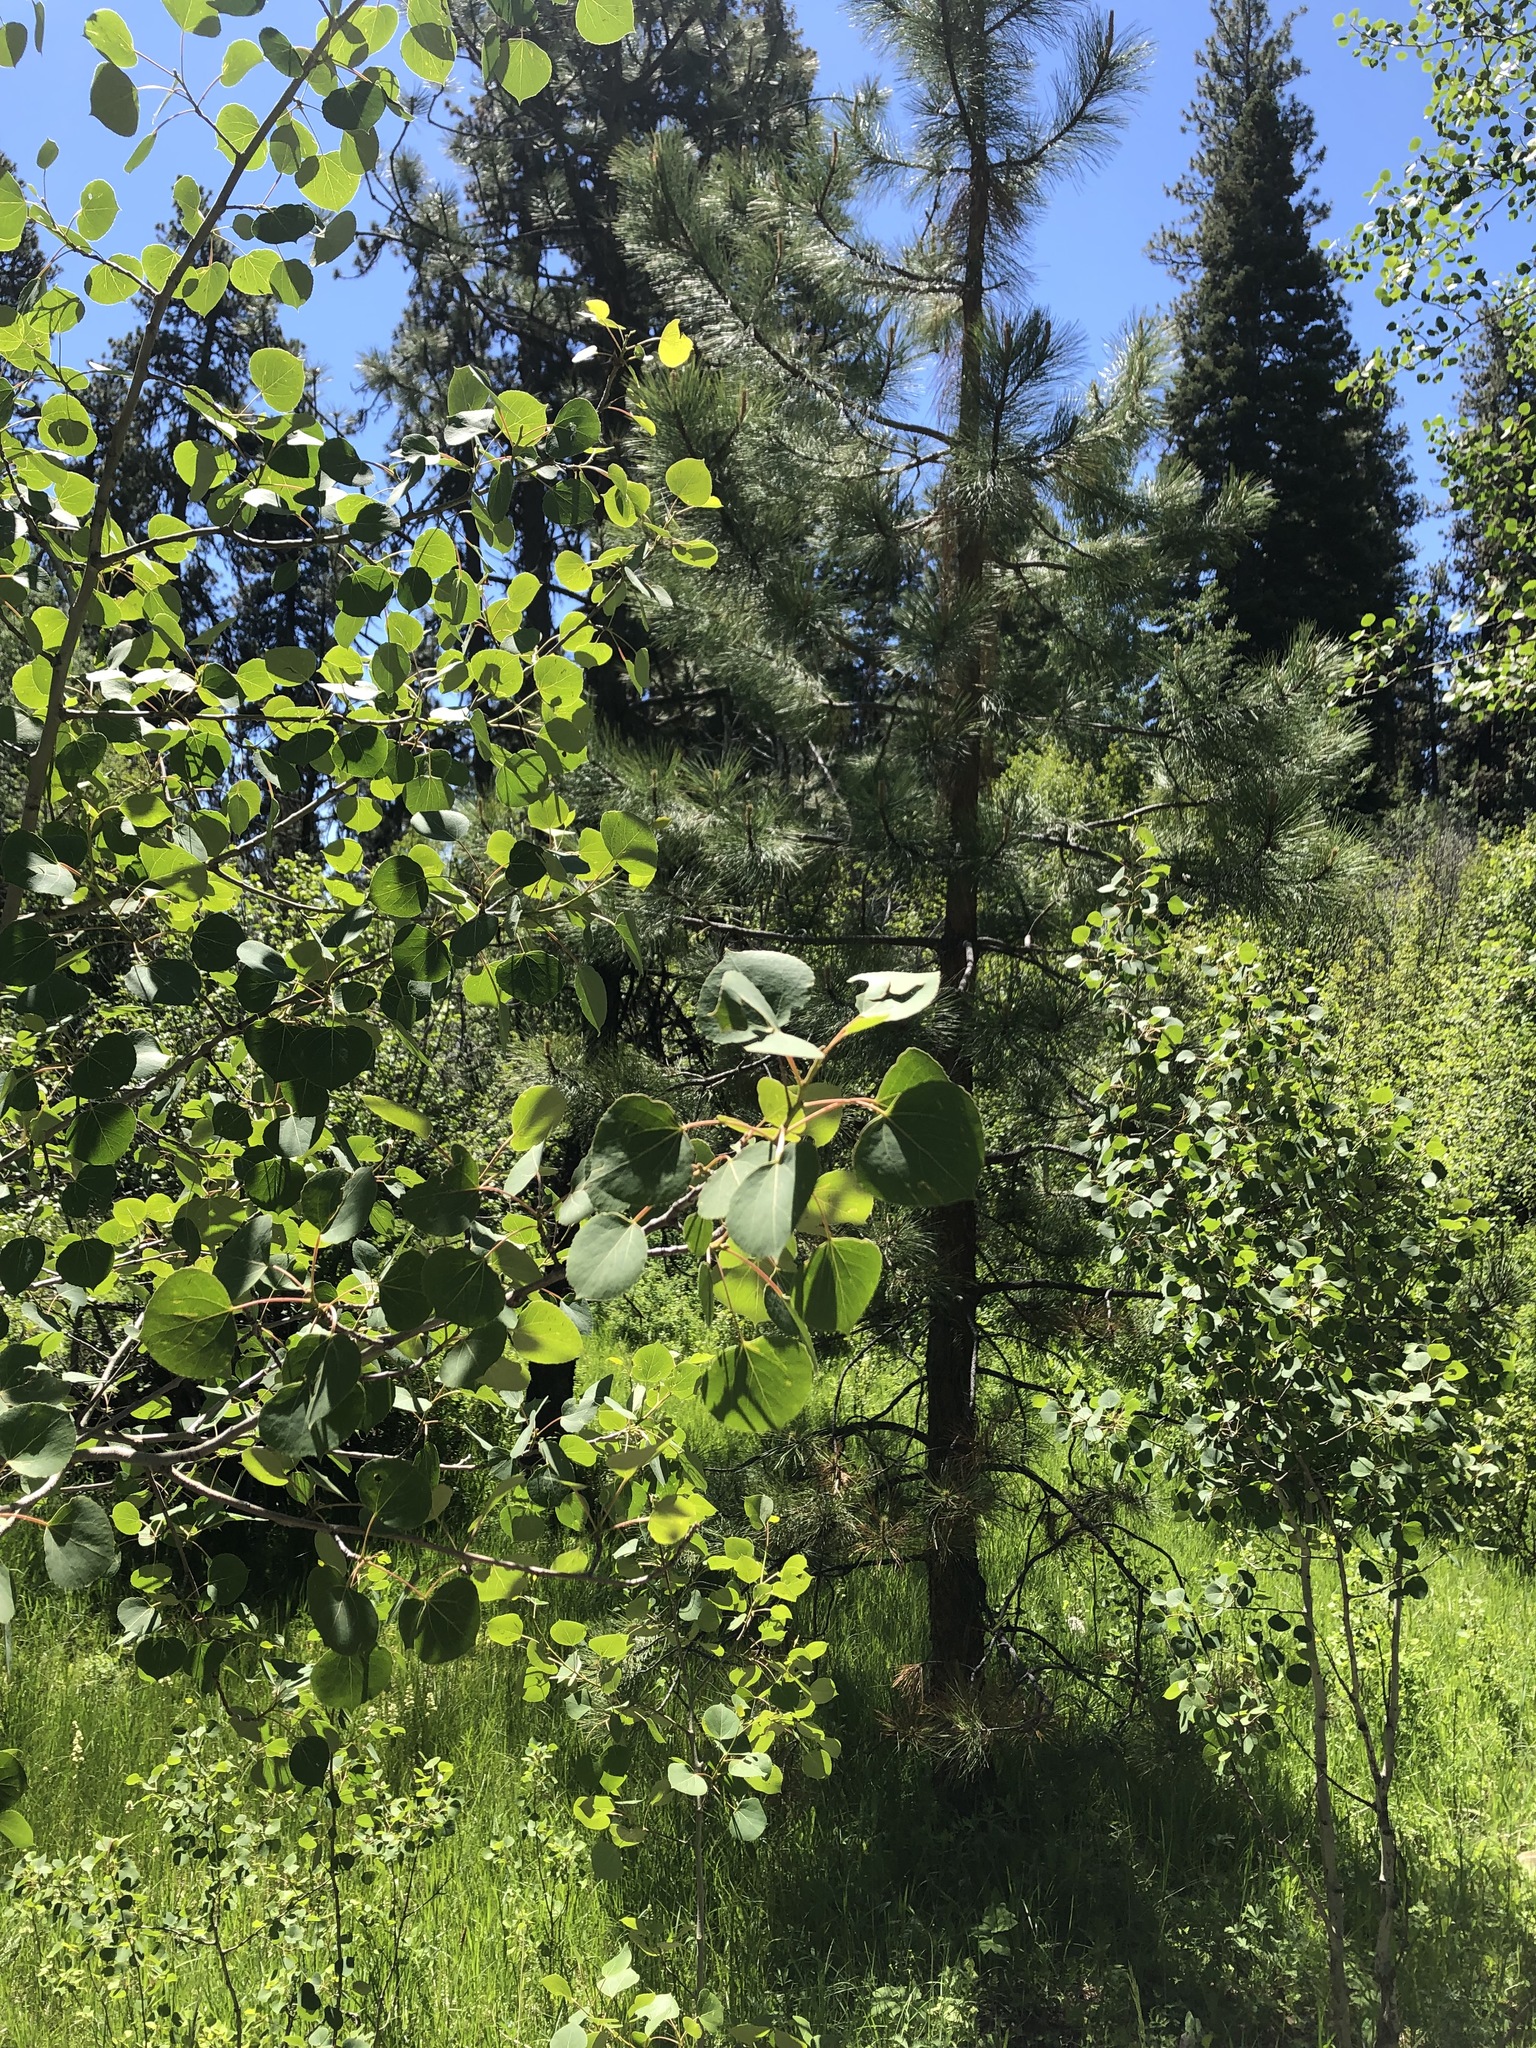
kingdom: Plantae
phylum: Tracheophyta
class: Magnoliopsida
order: Malpighiales
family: Salicaceae
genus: Populus
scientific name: Populus tremuloides
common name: Quaking aspen
